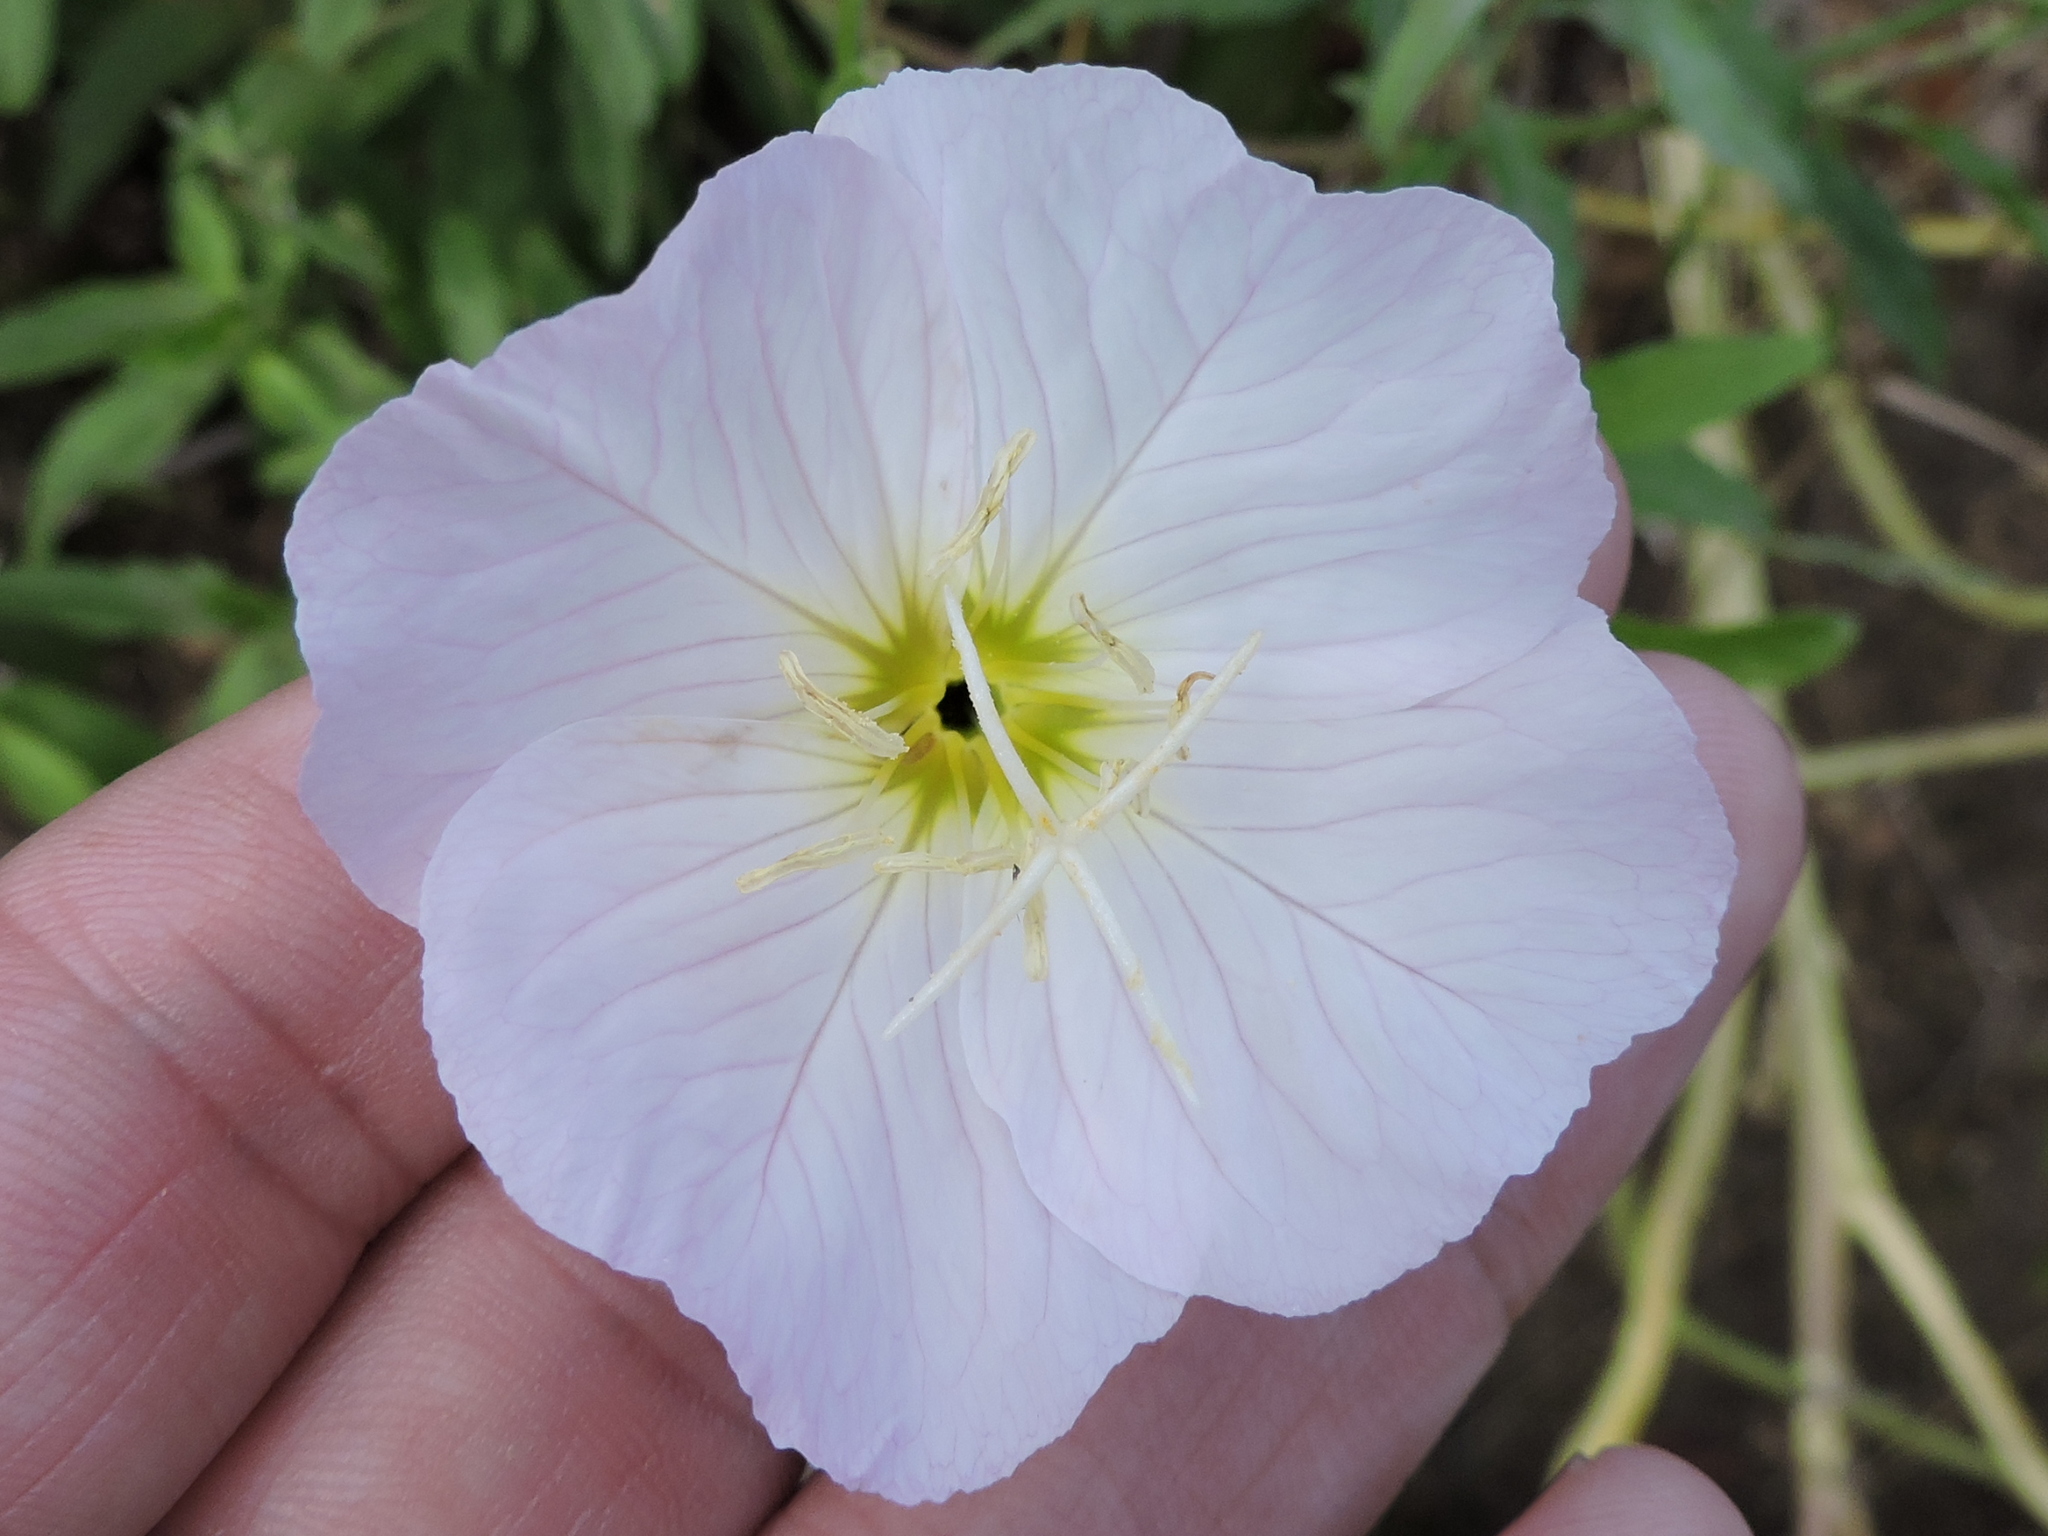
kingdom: Plantae
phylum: Tracheophyta
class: Magnoliopsida
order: Myrtales
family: Onagraceae
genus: Oenothera
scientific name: Oenothera speciosa
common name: White evening-primrose
